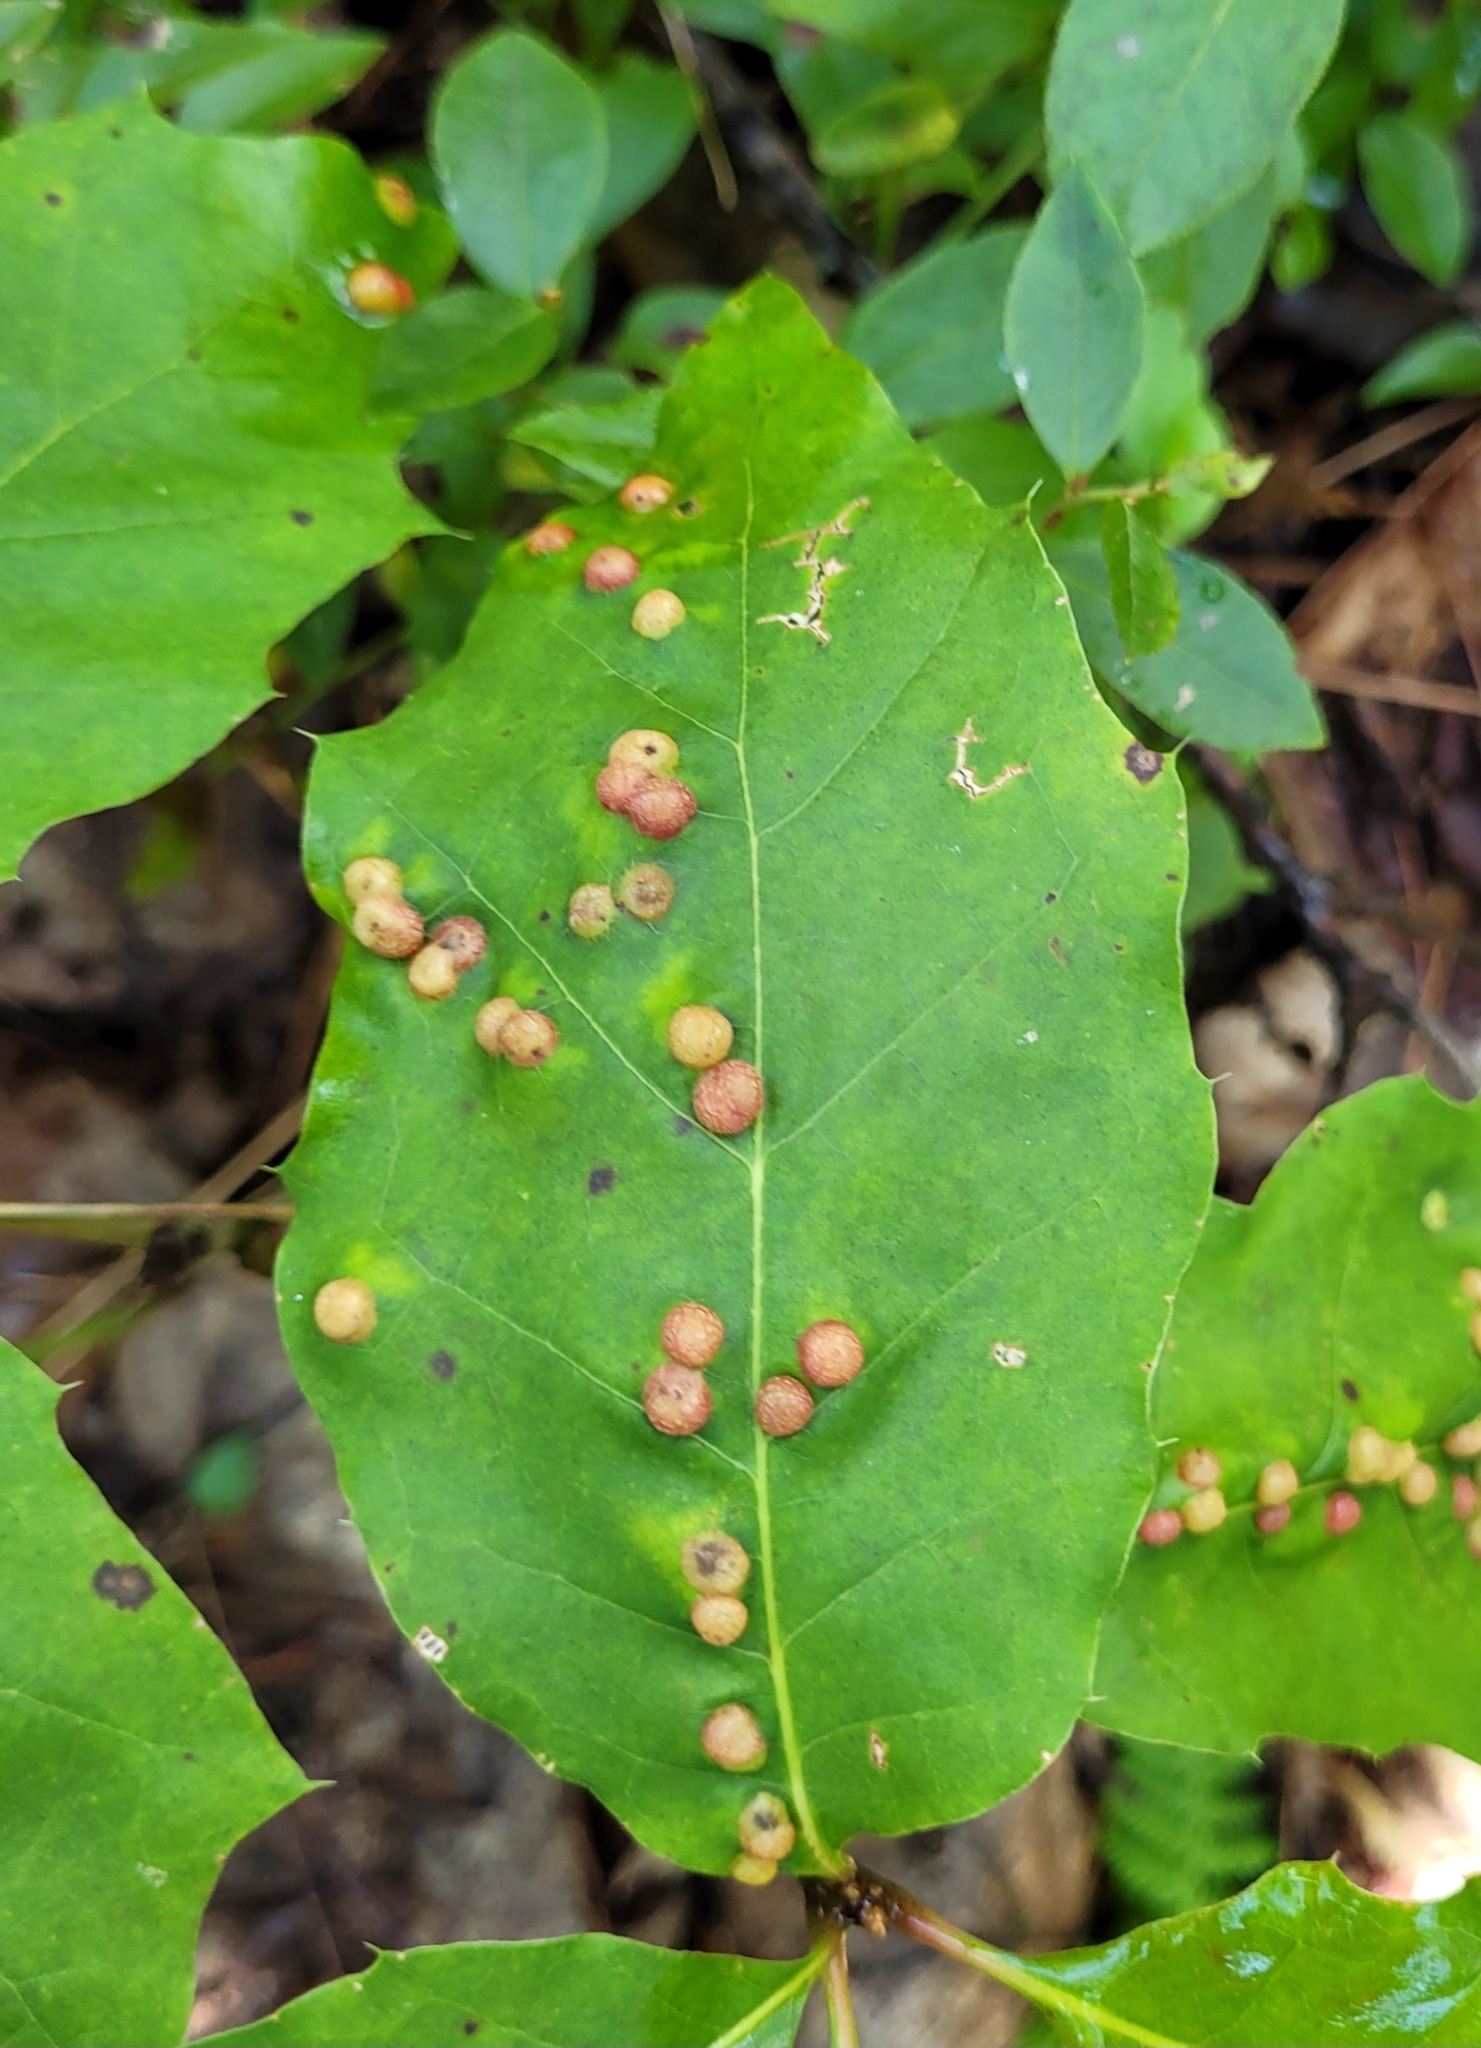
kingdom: Animalia
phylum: Arthropoda
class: Insecta
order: Diptera
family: Cecidomyiidae
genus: Polystepha
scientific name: Polystepha pilulae
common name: Oak leaf gall midge
